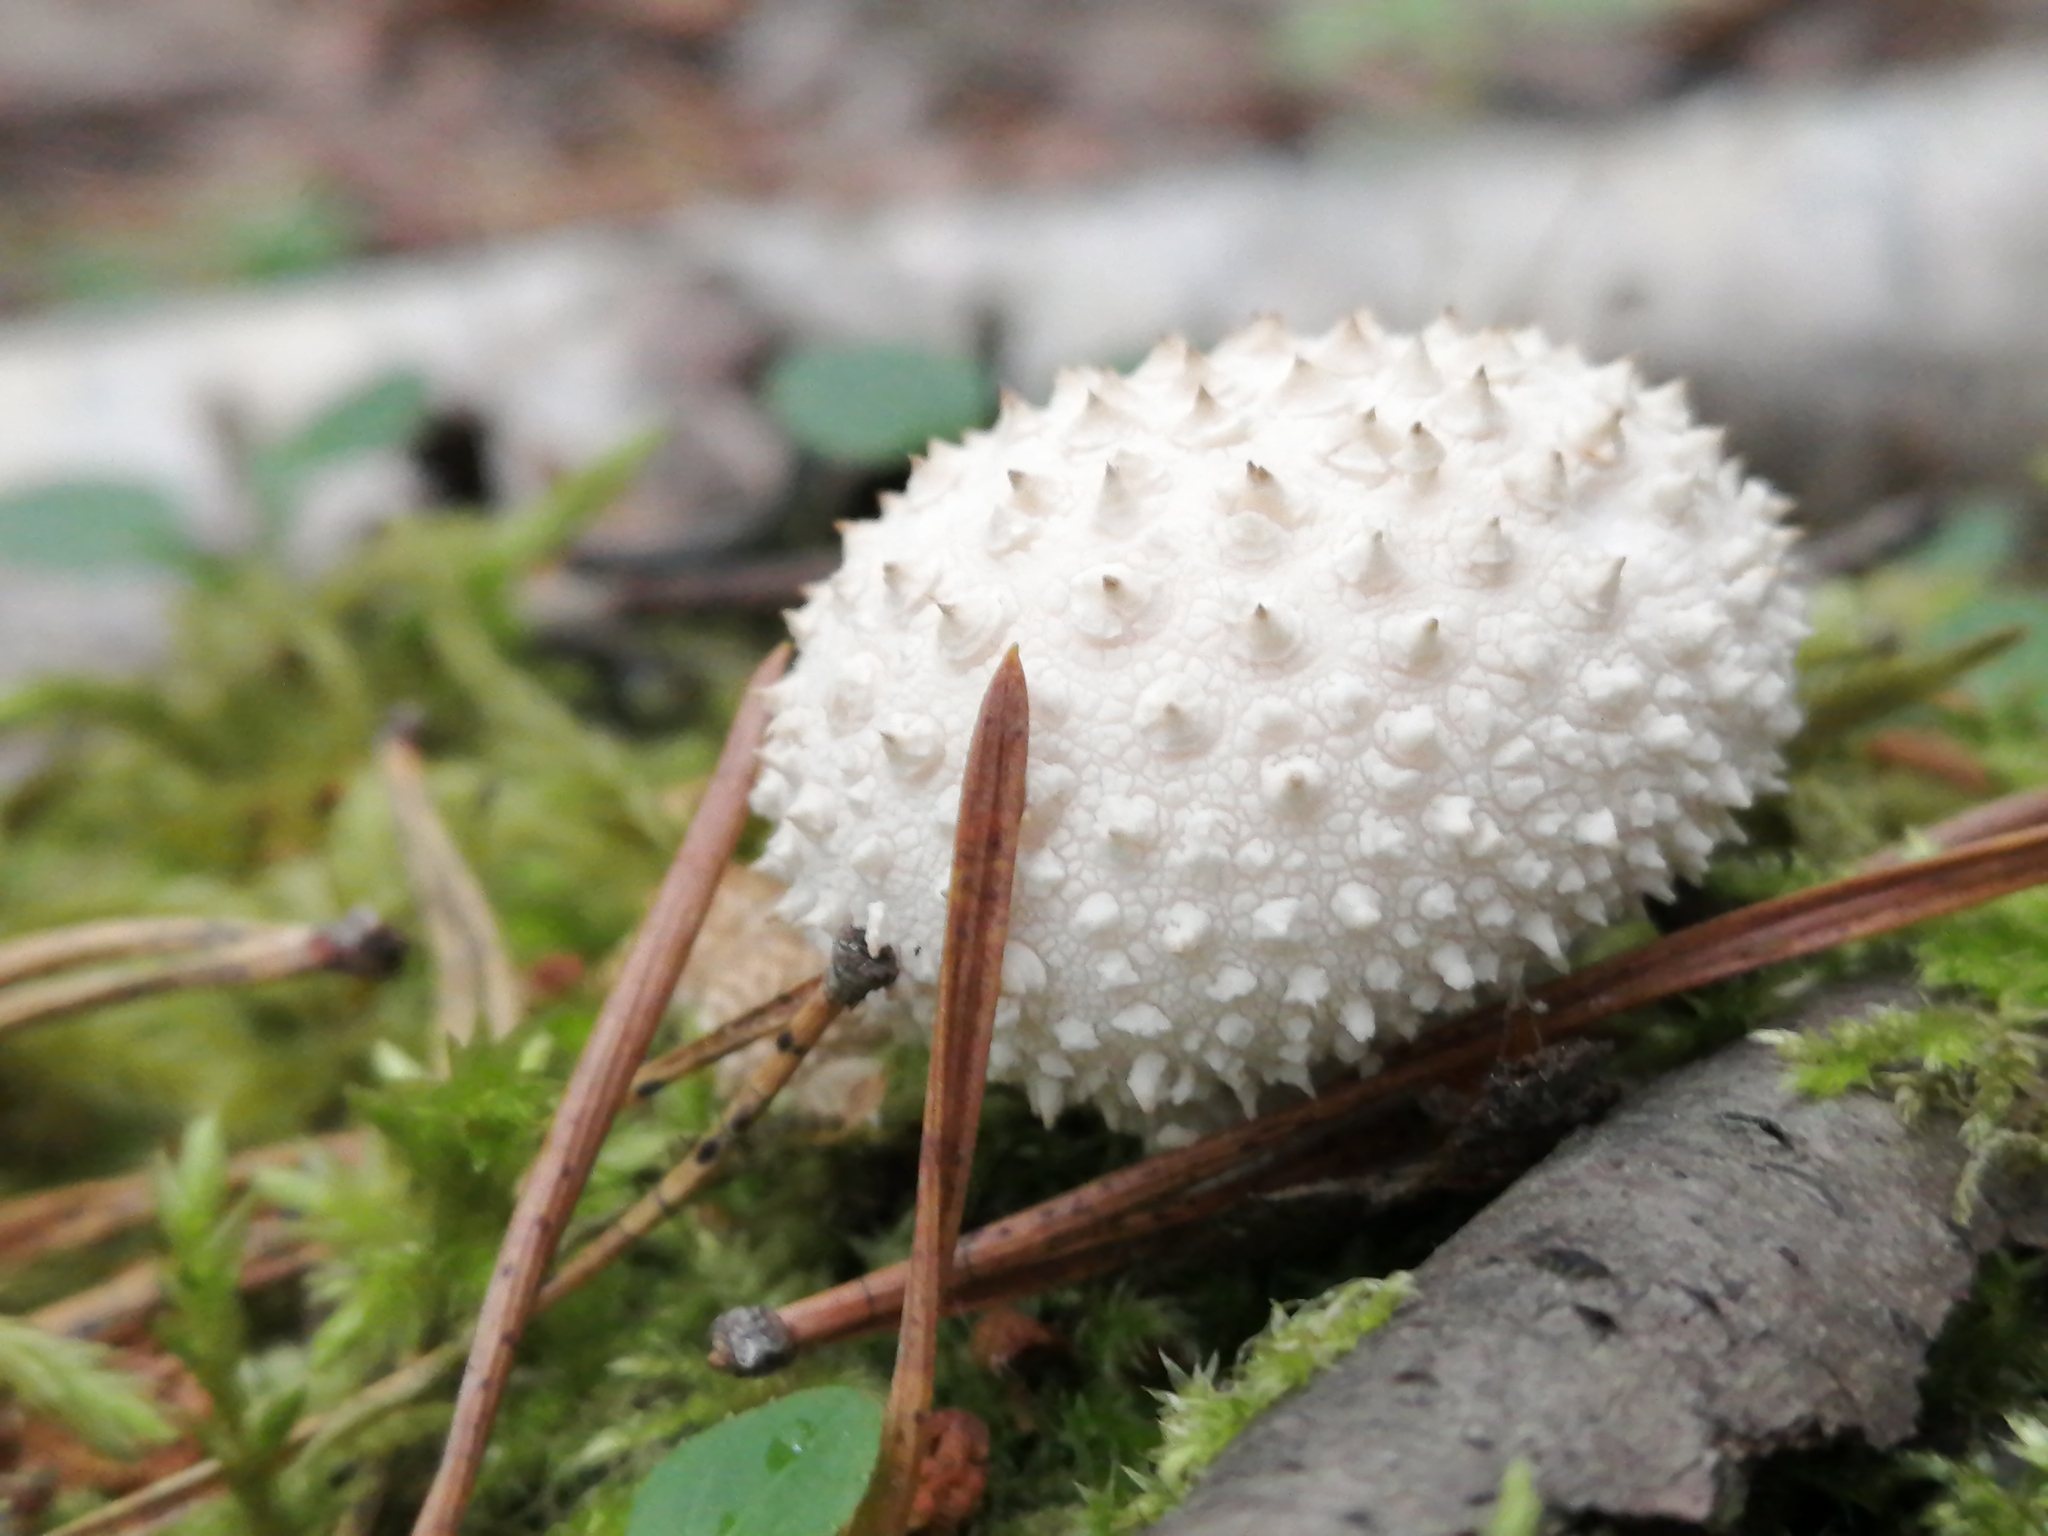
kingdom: Fungi
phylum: Basidiomycota
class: Agaricomycetes
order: Agaricales
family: Lycoperdaceae
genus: Lycoperdon
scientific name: Lycoperdon perlatum
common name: Common puffball
